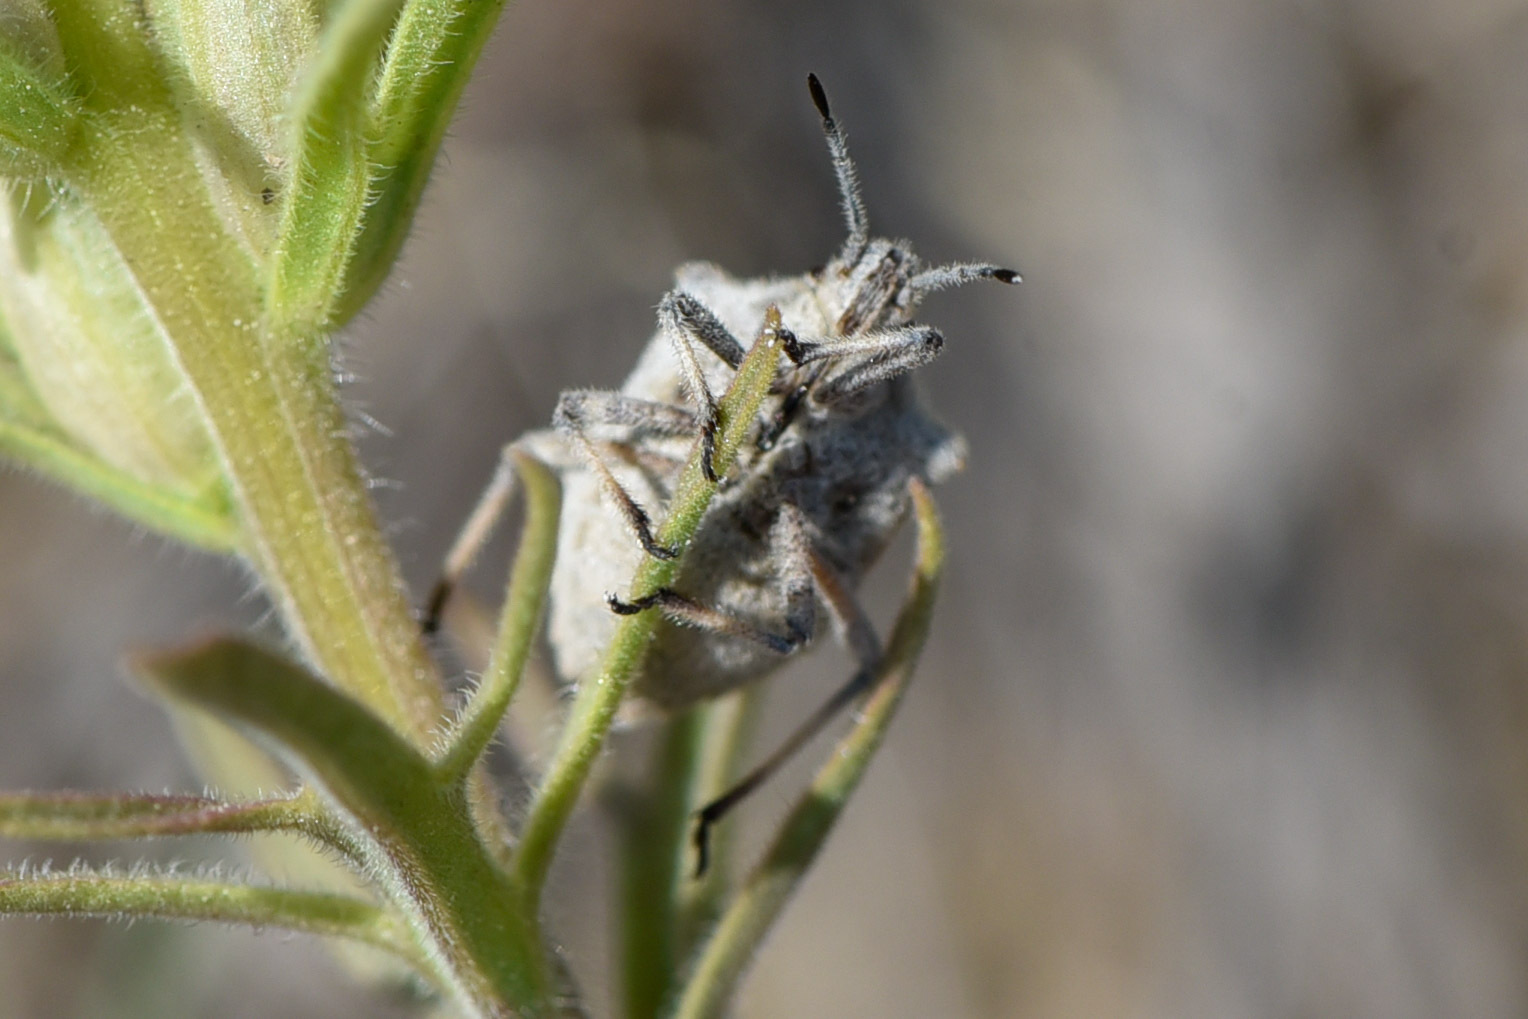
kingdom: Animalia
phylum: Arthropoda
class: Insecta
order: Hemiptera
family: Pentatomidae
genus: Prionosoma
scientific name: Prionosoma podopioides
